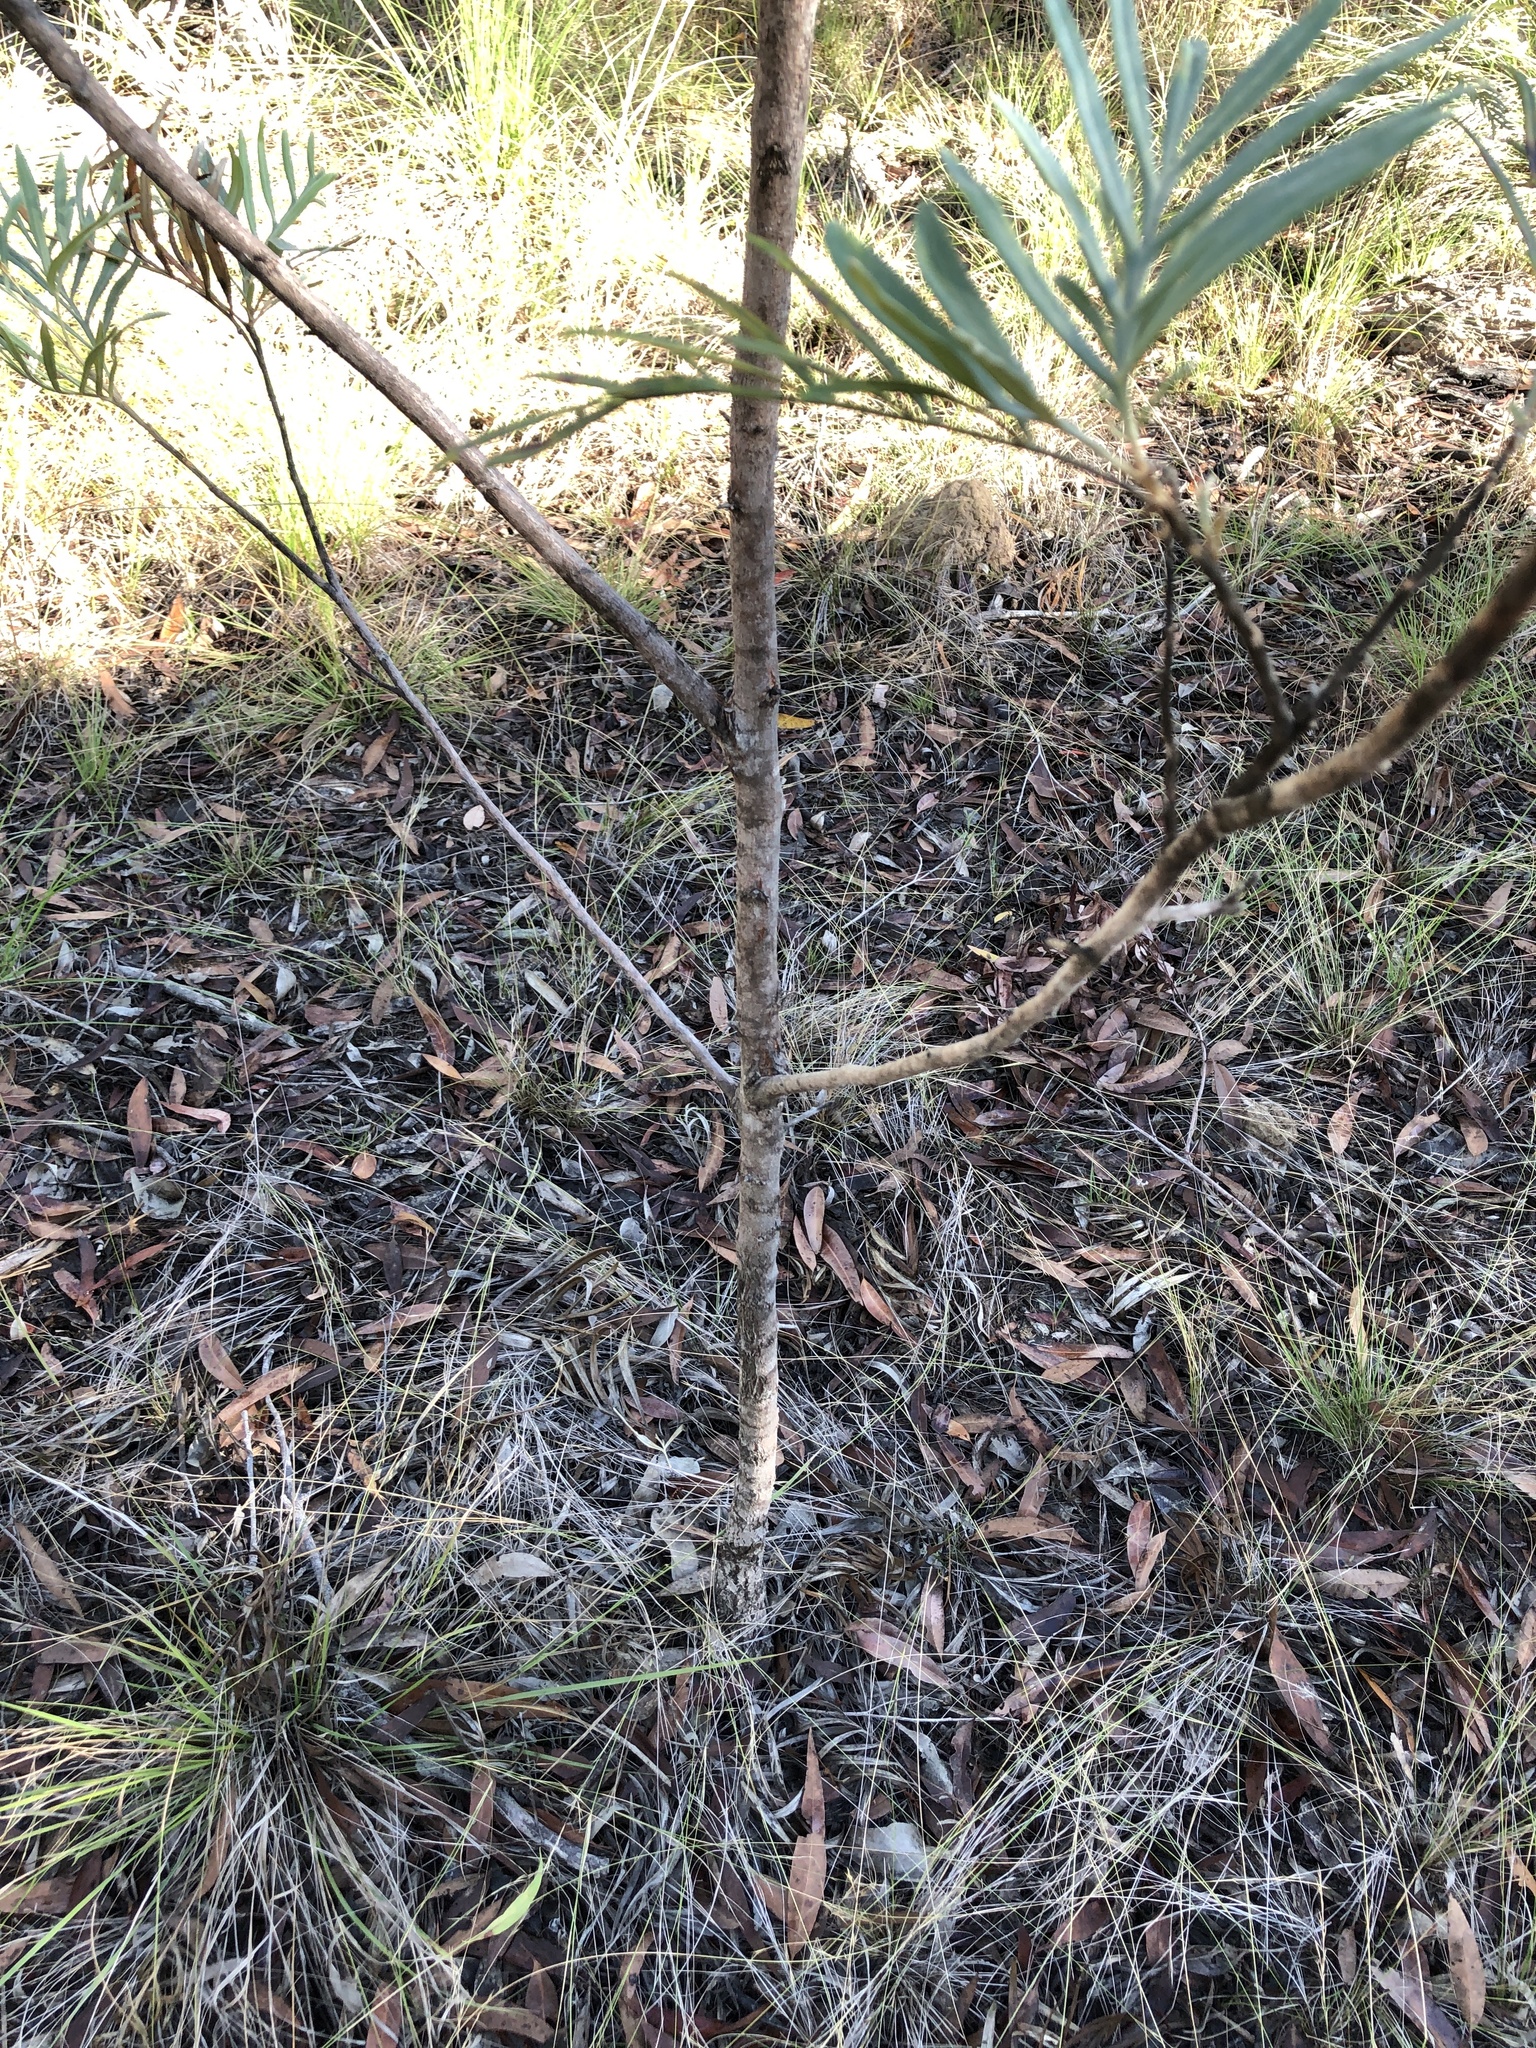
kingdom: Plantae
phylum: Tracheophyta
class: Magnoliopsida
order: Proteales
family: Proteaceae
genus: Grevillea
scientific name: Grevillea banksii
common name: Kahili flower
